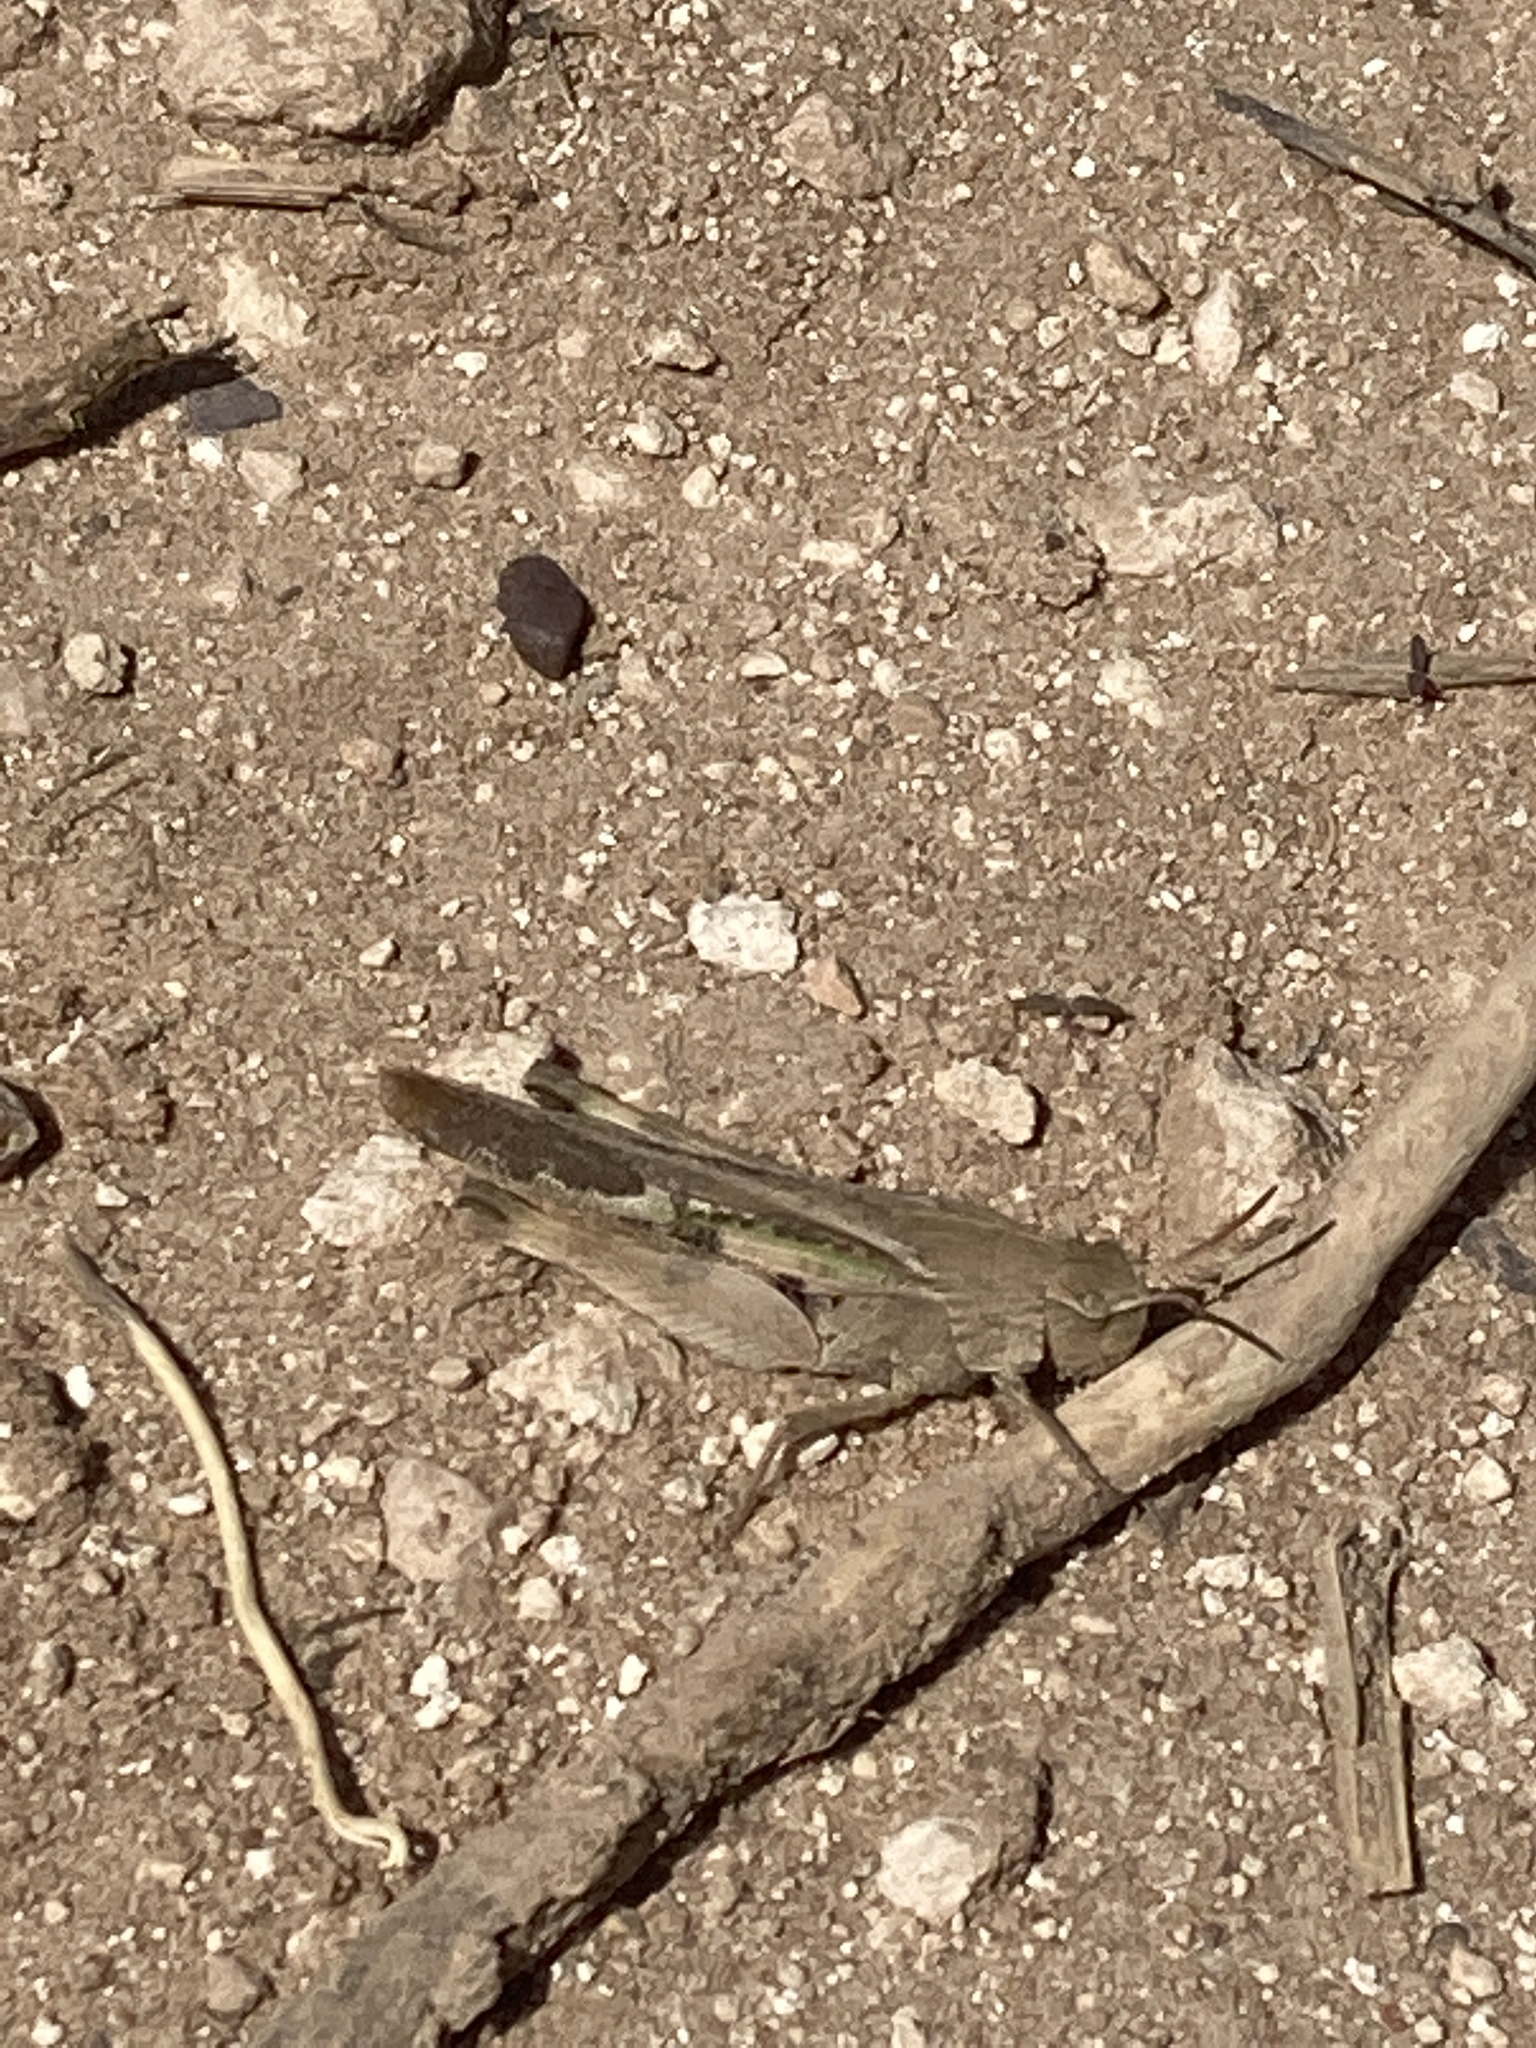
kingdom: Animalia
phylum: Arthropoda
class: Insecta
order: Orthoptera
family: Acrididae
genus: Chortophaga
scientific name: Chortophaga viridifasciata
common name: Green-striped grasshopper
